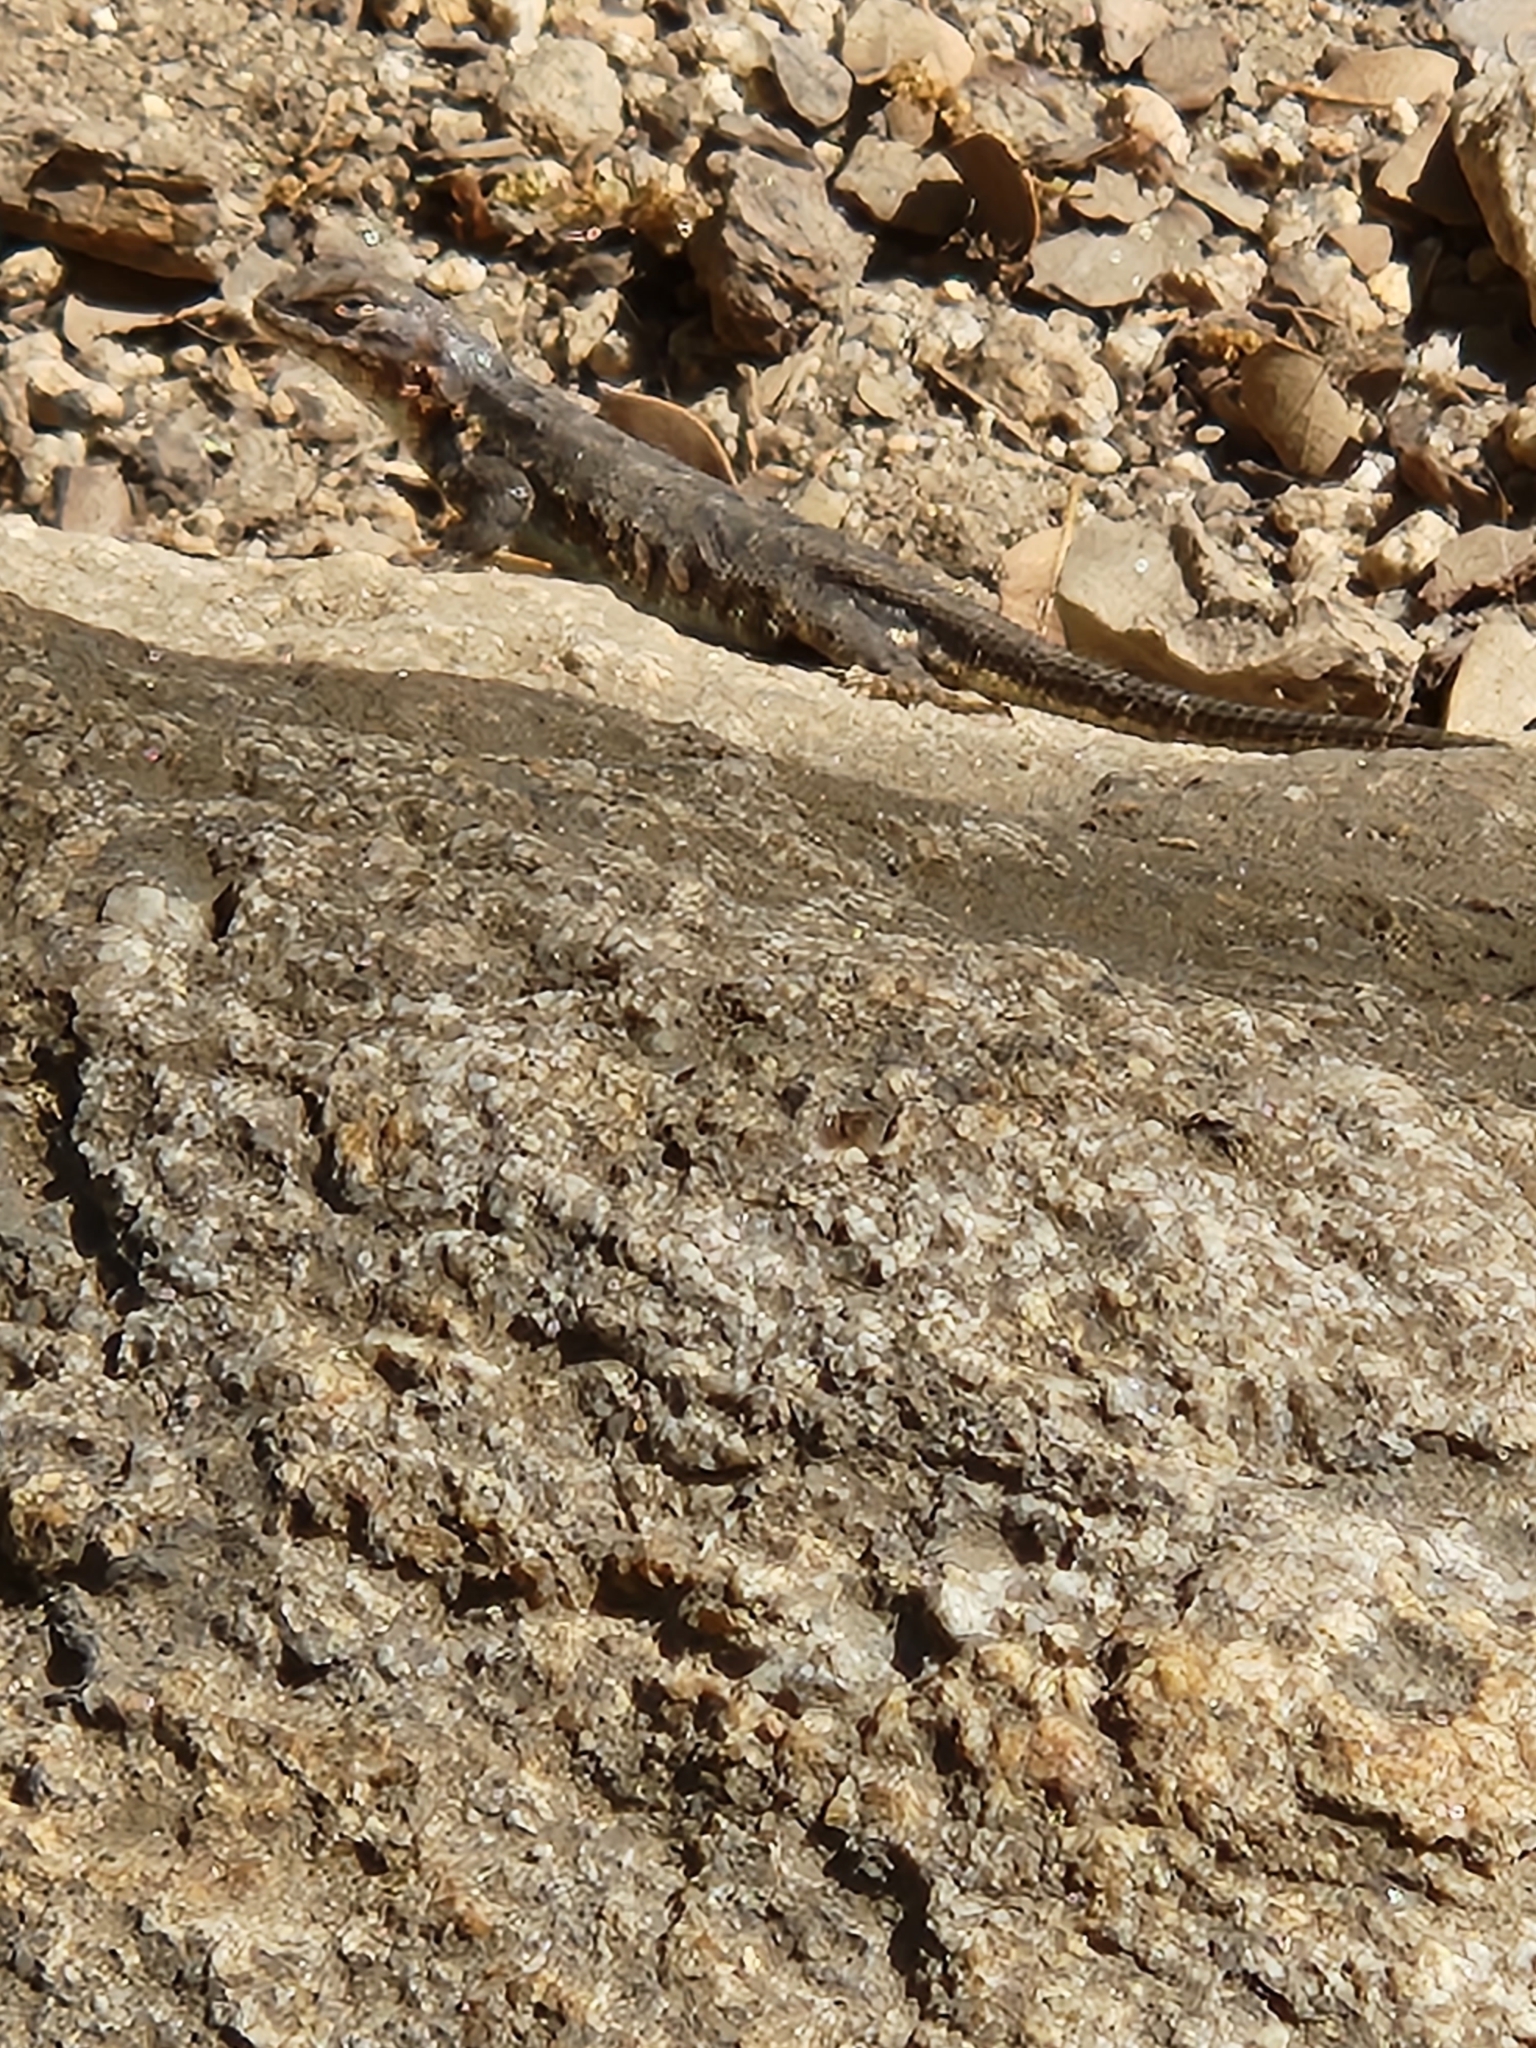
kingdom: Animalia
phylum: Chordata
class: Squamata
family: Phrynosomatidae
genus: Sceloporus
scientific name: Sceloporus occidentalis
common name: Western fence lizard
